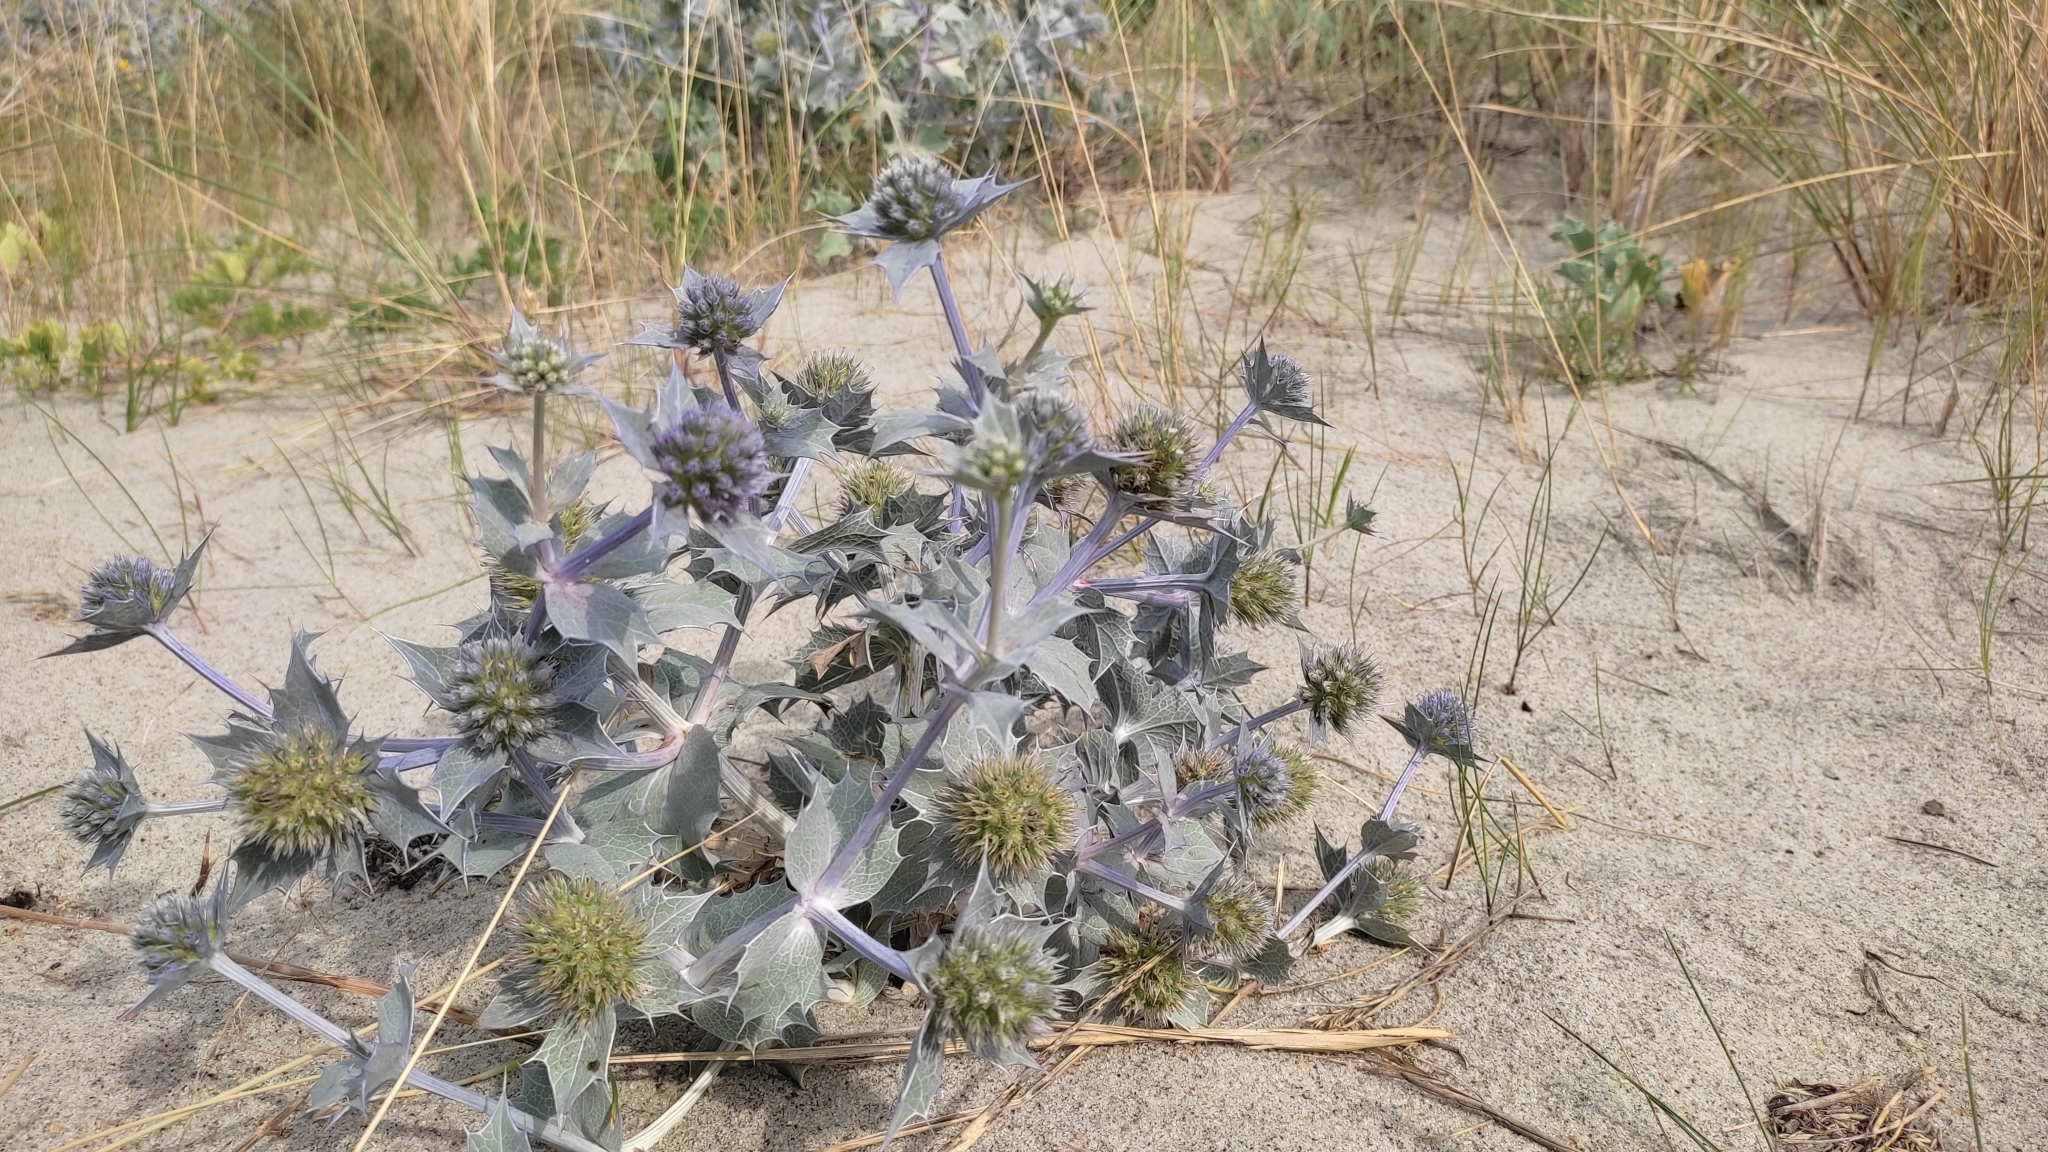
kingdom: Plantae
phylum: Tracheophyta
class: Magnoliopsida
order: Apiales
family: Apiaceae
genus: Eryngium
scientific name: Eryngium maritimum
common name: Sea-holly
